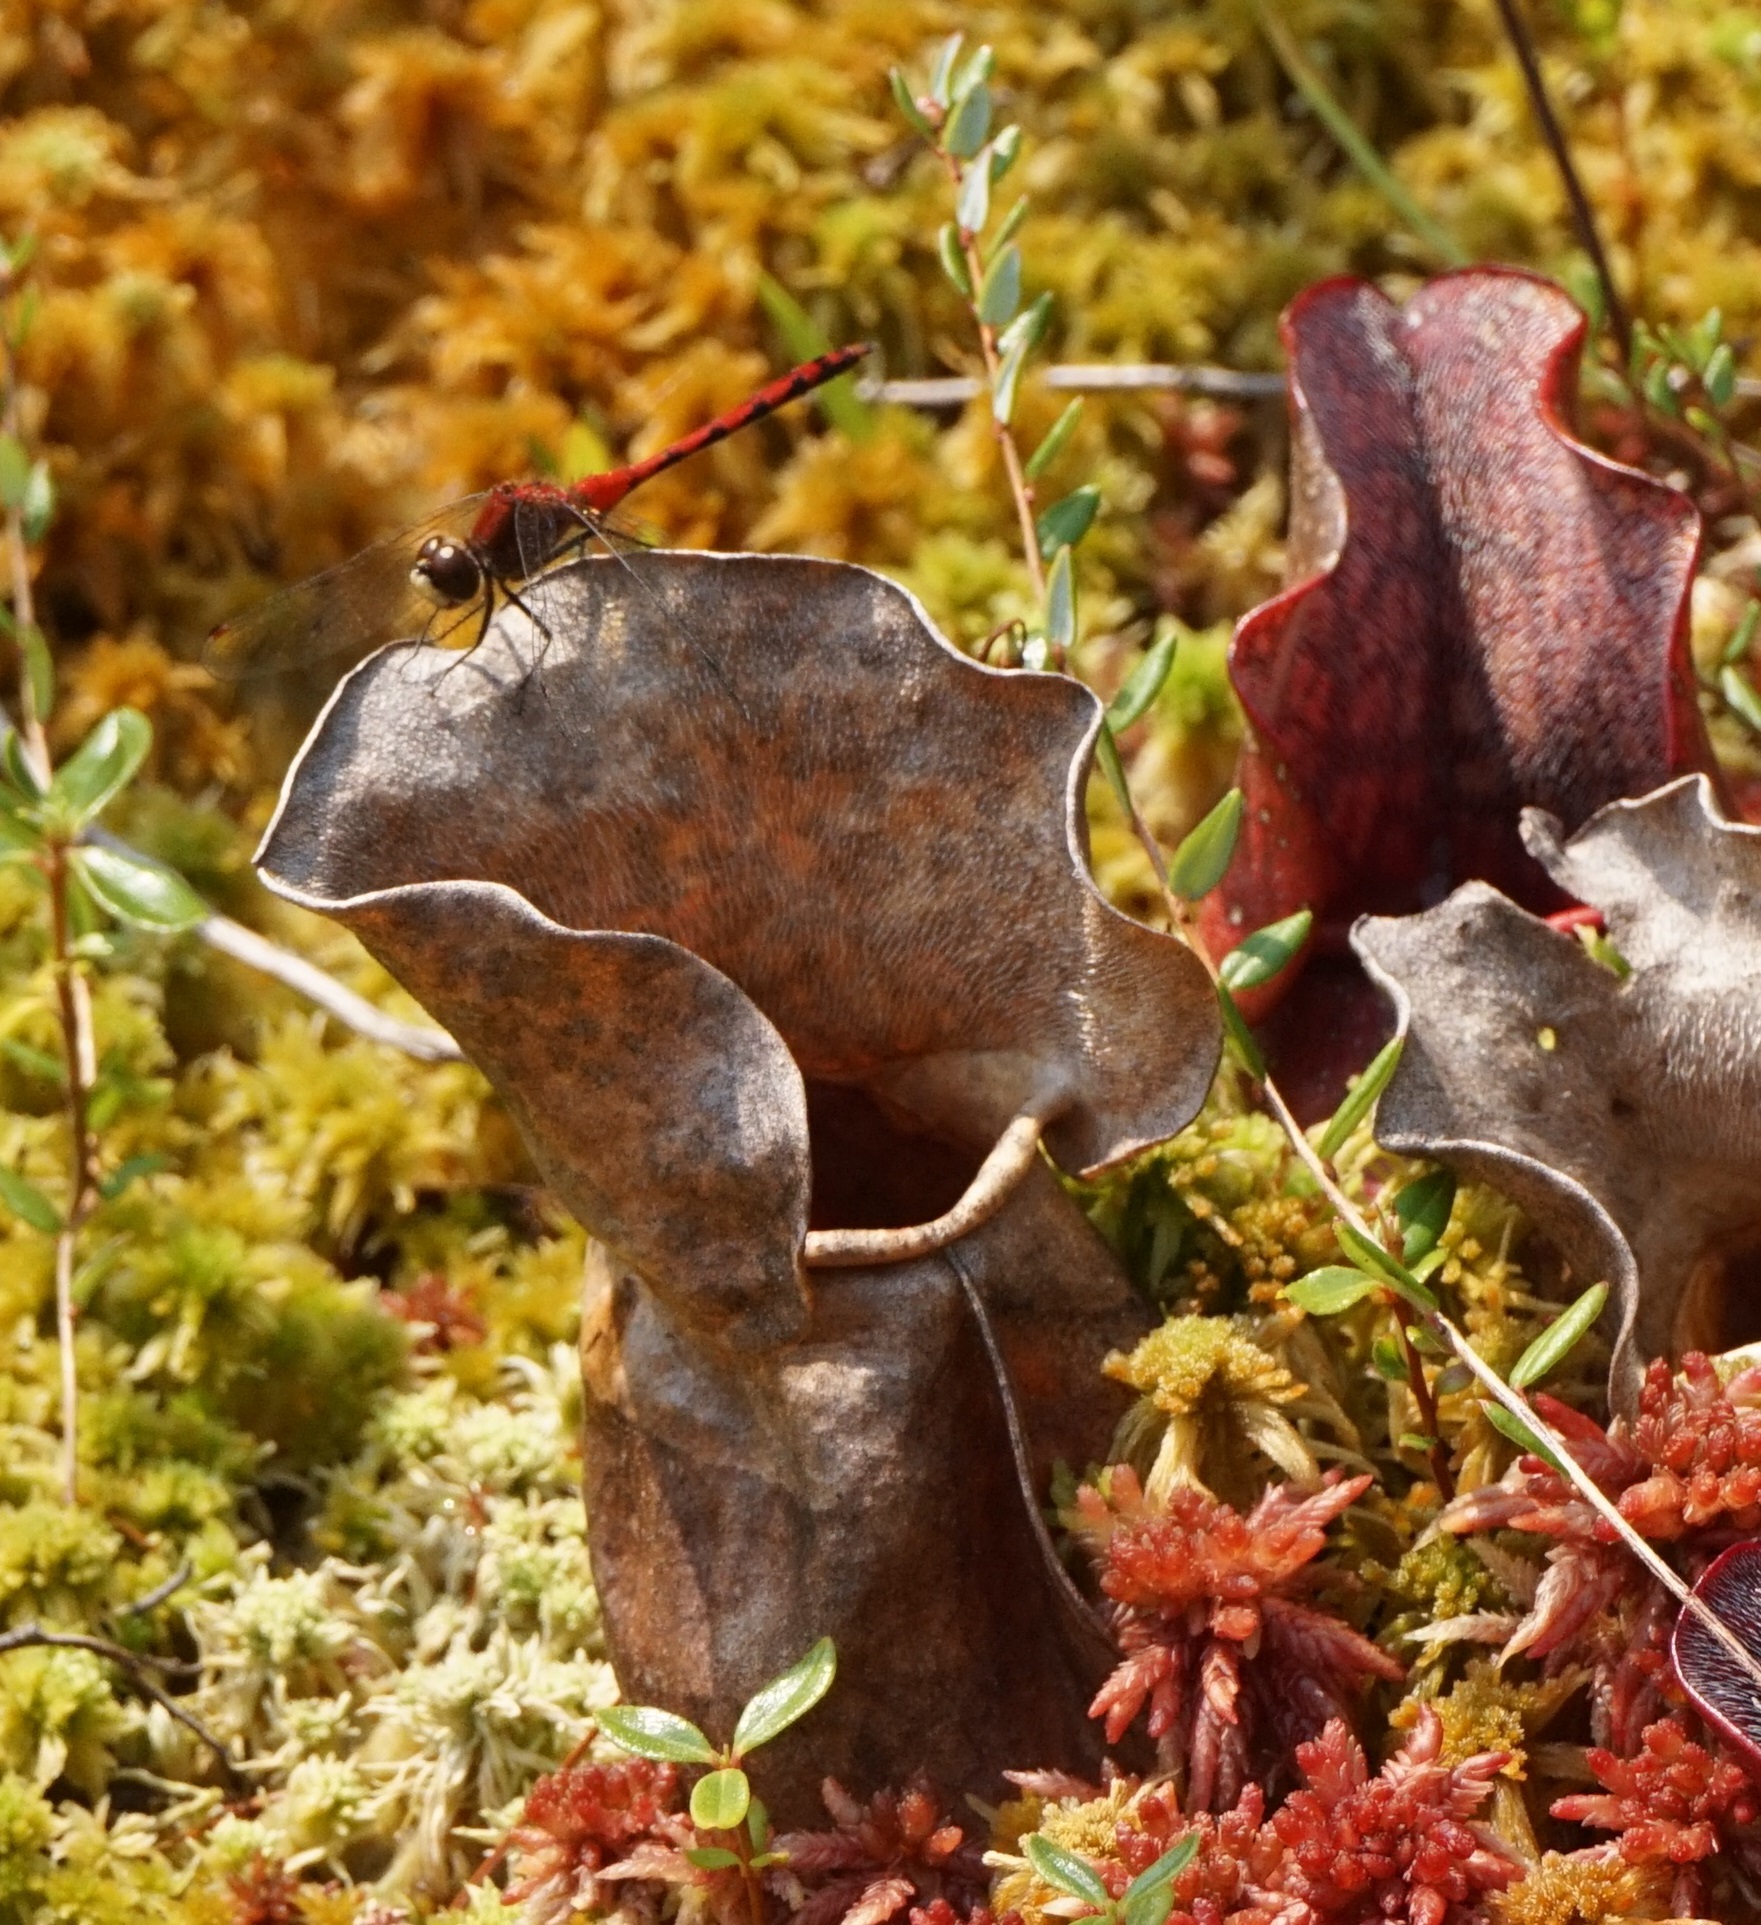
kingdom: Animalia
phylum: Arthropoda
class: Insecta
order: Odonata
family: Libellulidae
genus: Sympetrum
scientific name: Sympetrum obtrusum
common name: White-faced meadowhawk
